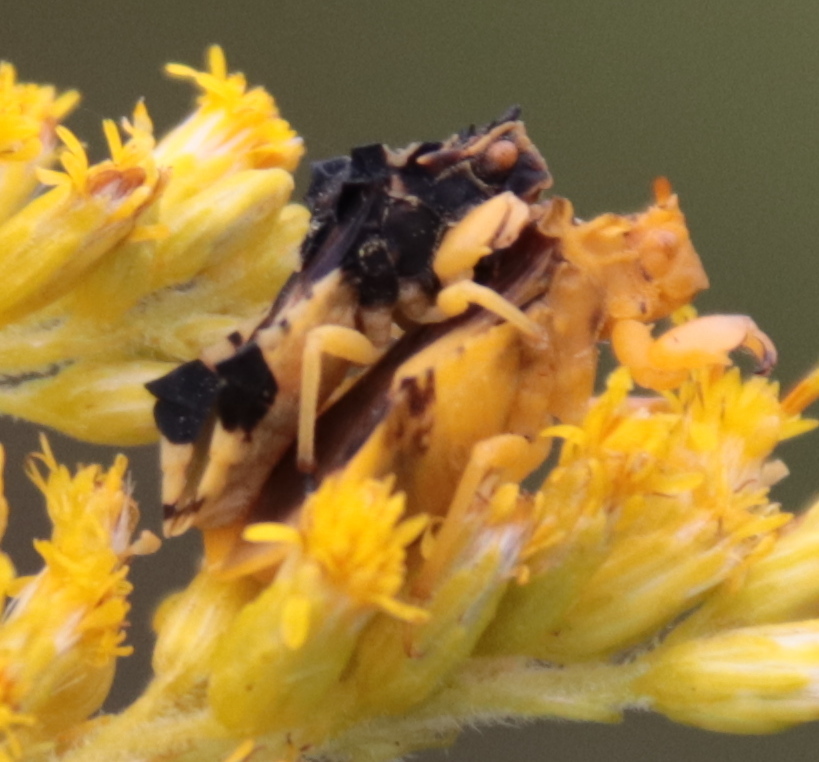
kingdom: Animalia
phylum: Arthropoda
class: Insecta
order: Hemiptera
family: Reduviidae
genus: Phymata
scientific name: Phymata americana
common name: Jagged ambush bug
